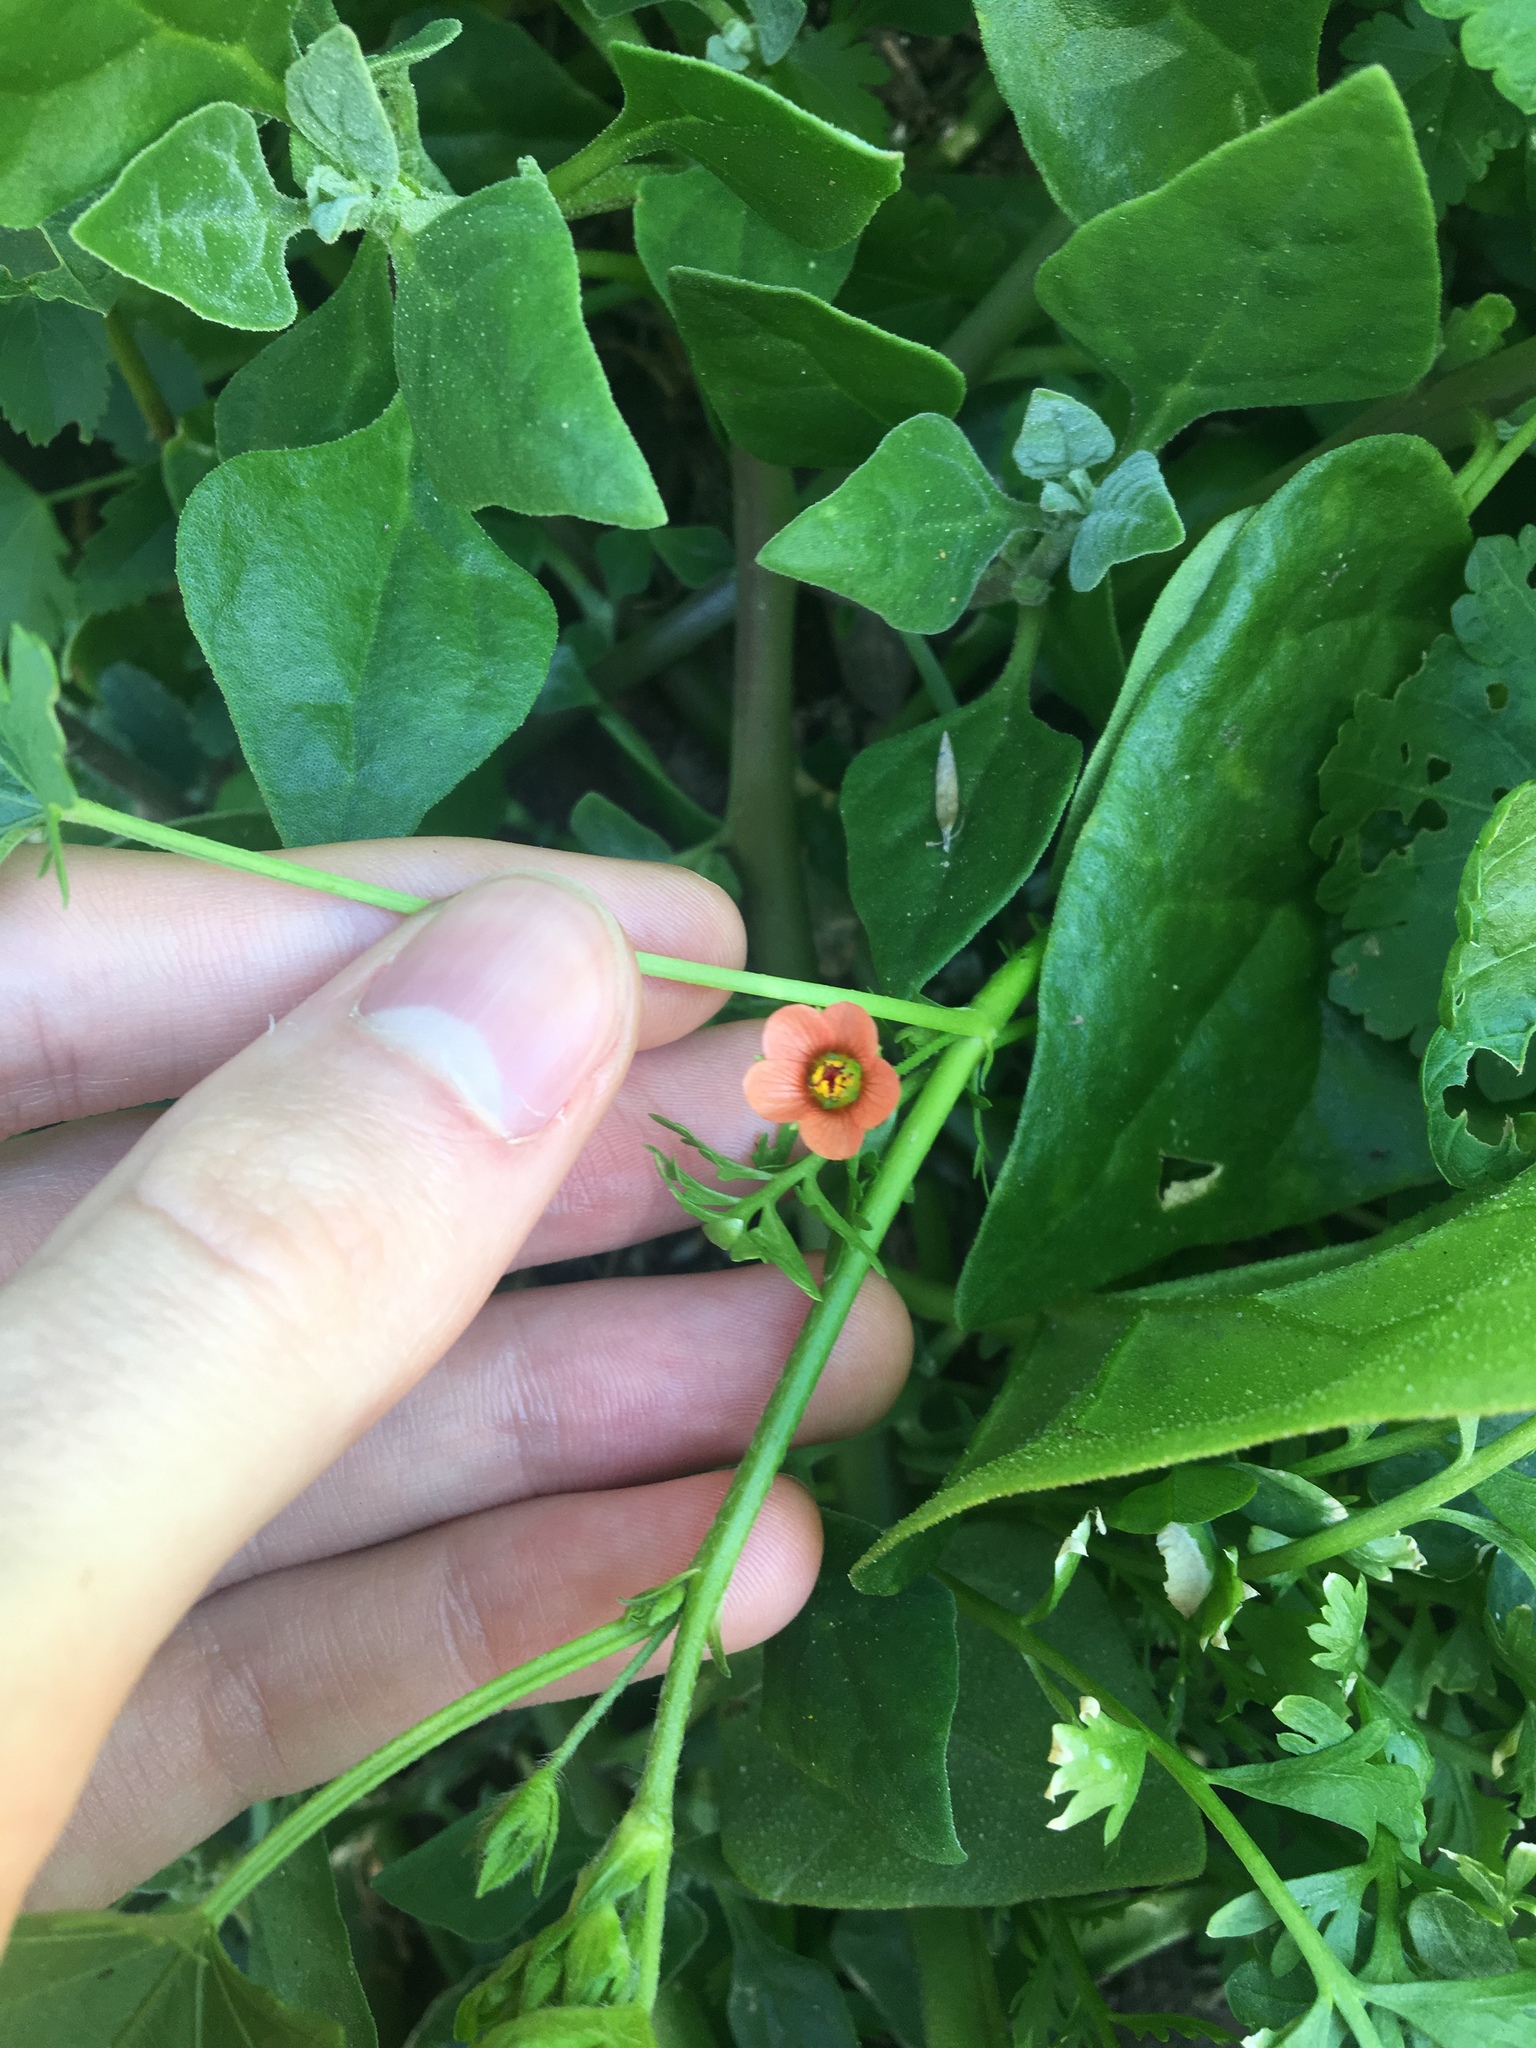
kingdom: Plantae
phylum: Tracheophyta
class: Magnoliopsida
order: Malvales
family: Malvaceae
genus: Modiola
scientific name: Modiola caroliniana
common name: Carolina bristlemallow
